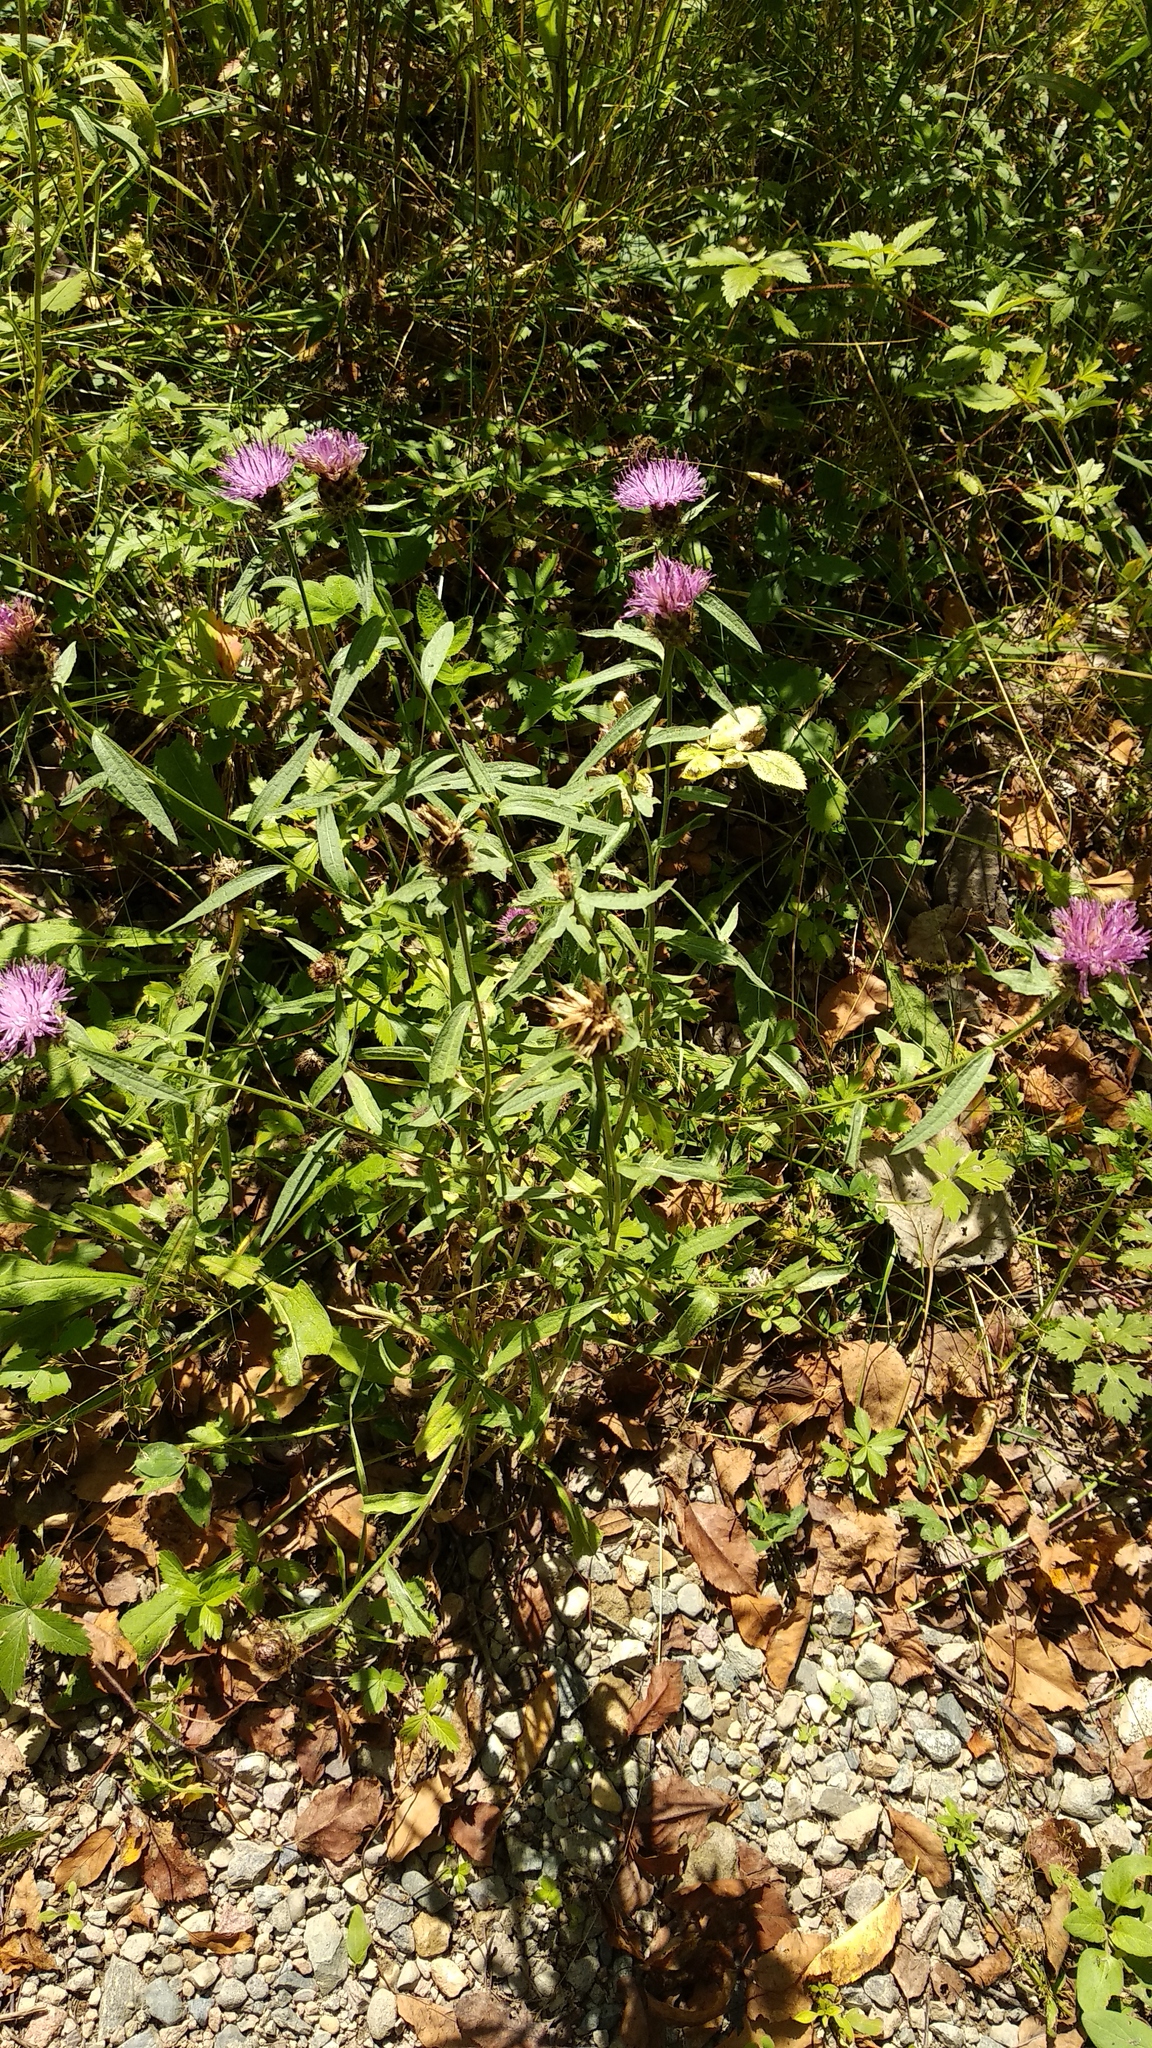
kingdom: Plantae
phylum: Tracheophyta
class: Magnoliopsida
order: Asterales
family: Asteraceae
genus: Centaurea
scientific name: Centaurea nigra
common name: Lesser knapweed
